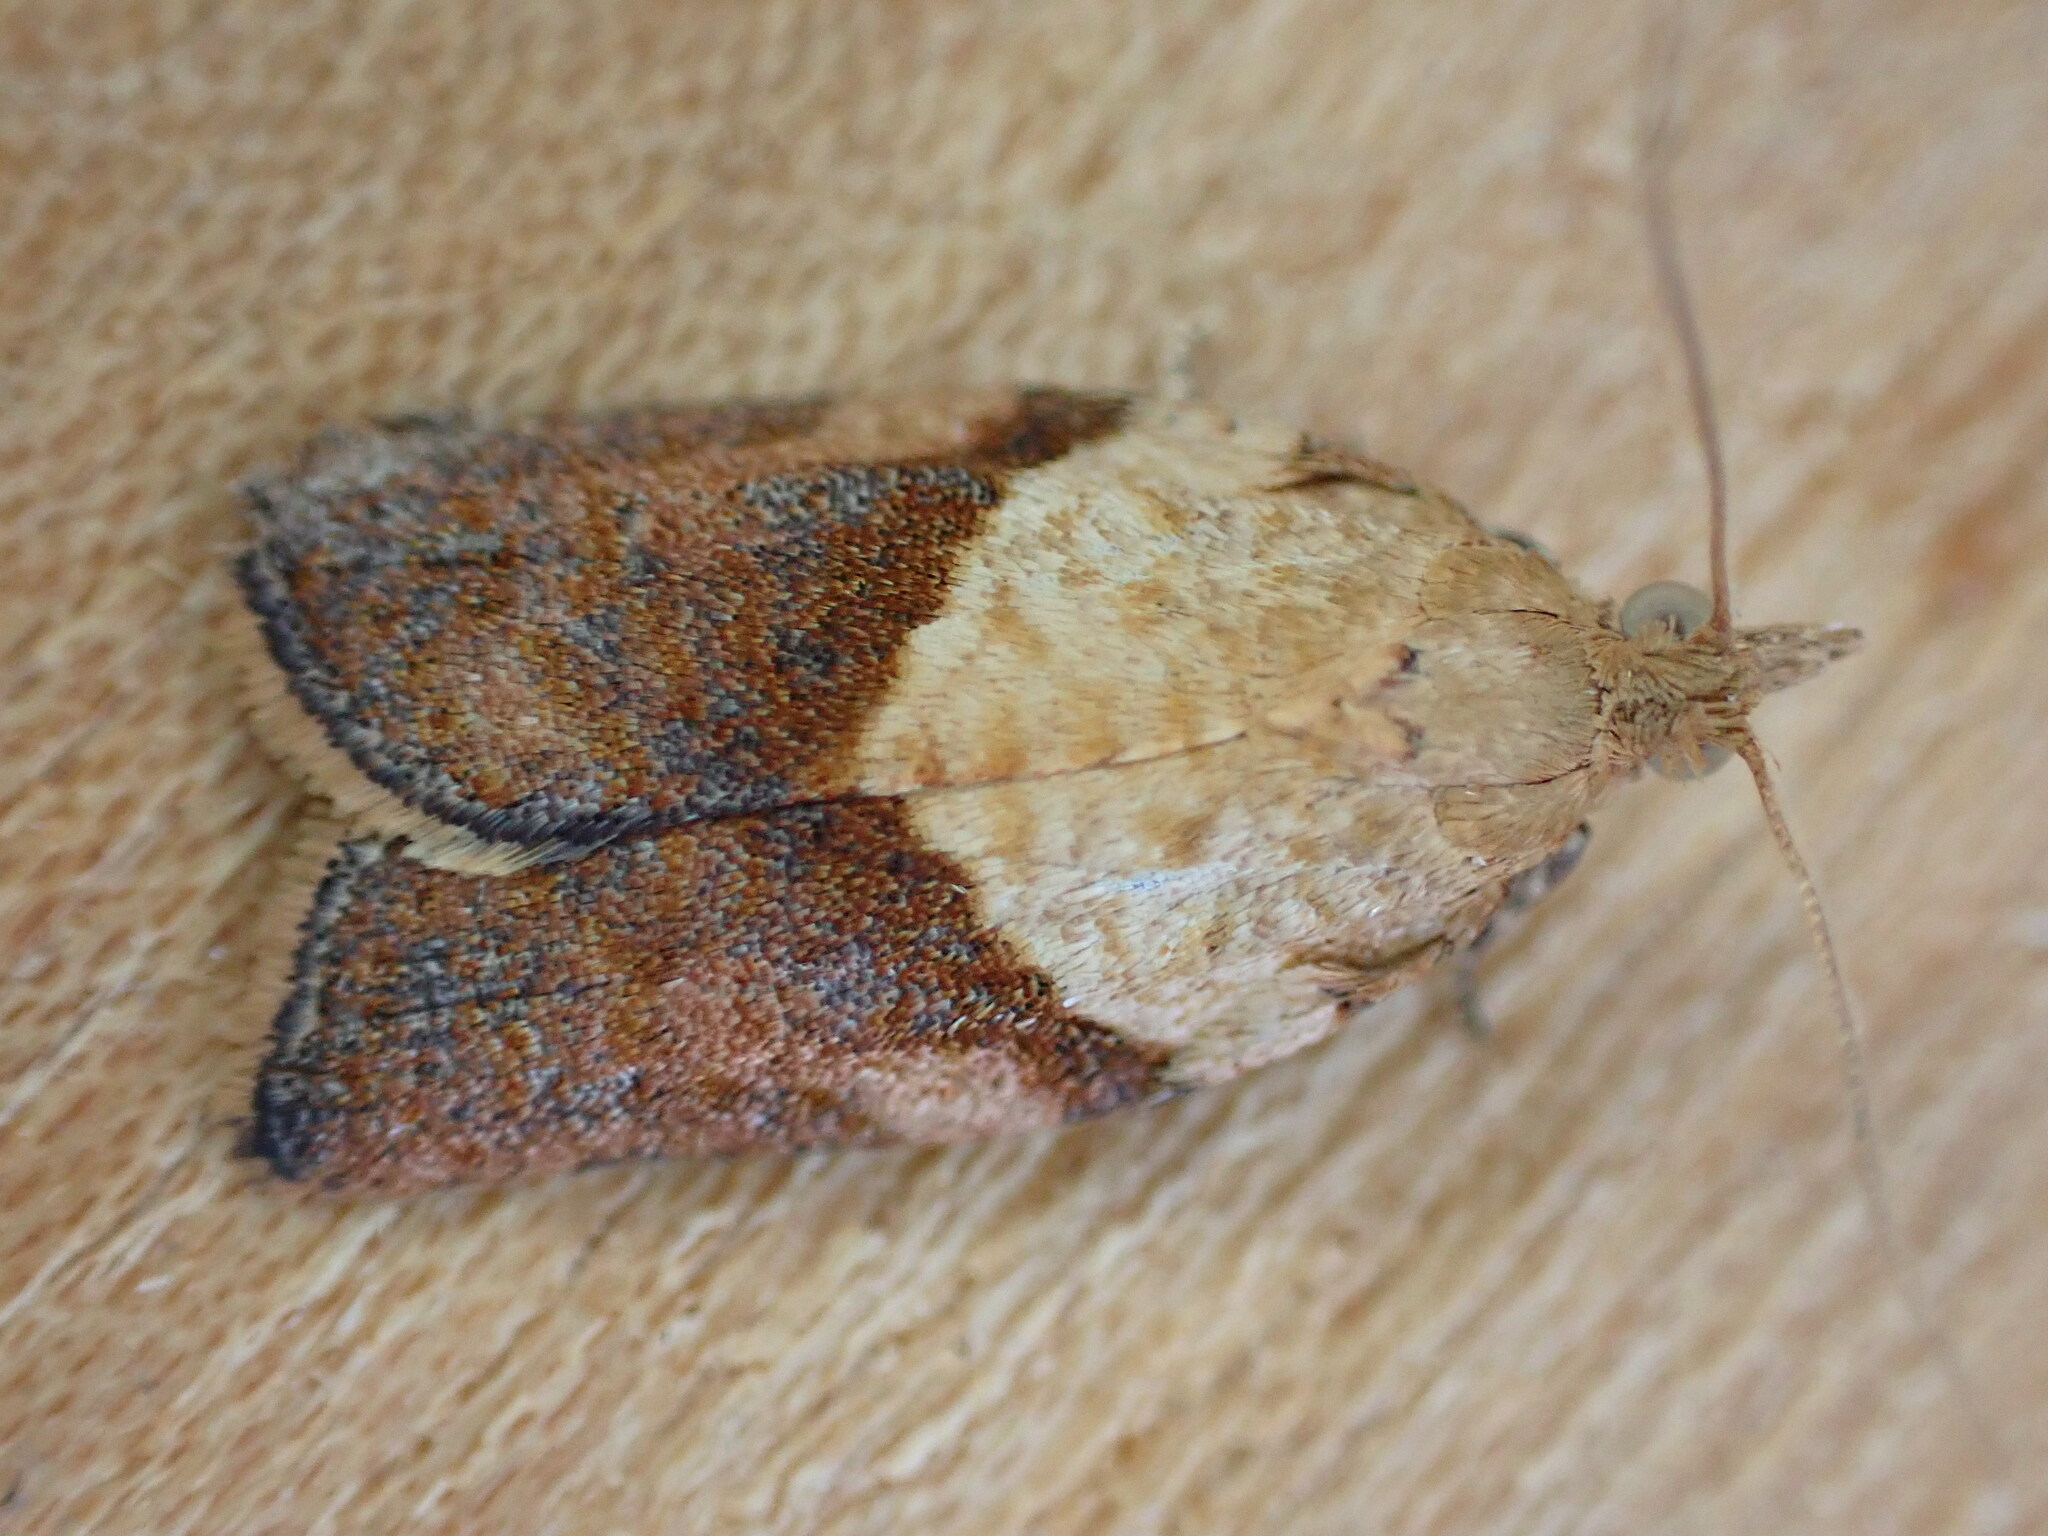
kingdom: Animalia
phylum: Arthropoda
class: Insecta
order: Lepidoptera
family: Tortricidae
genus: Epiphyas
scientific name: Epiphyas postvittana
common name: Light brown apple moth
